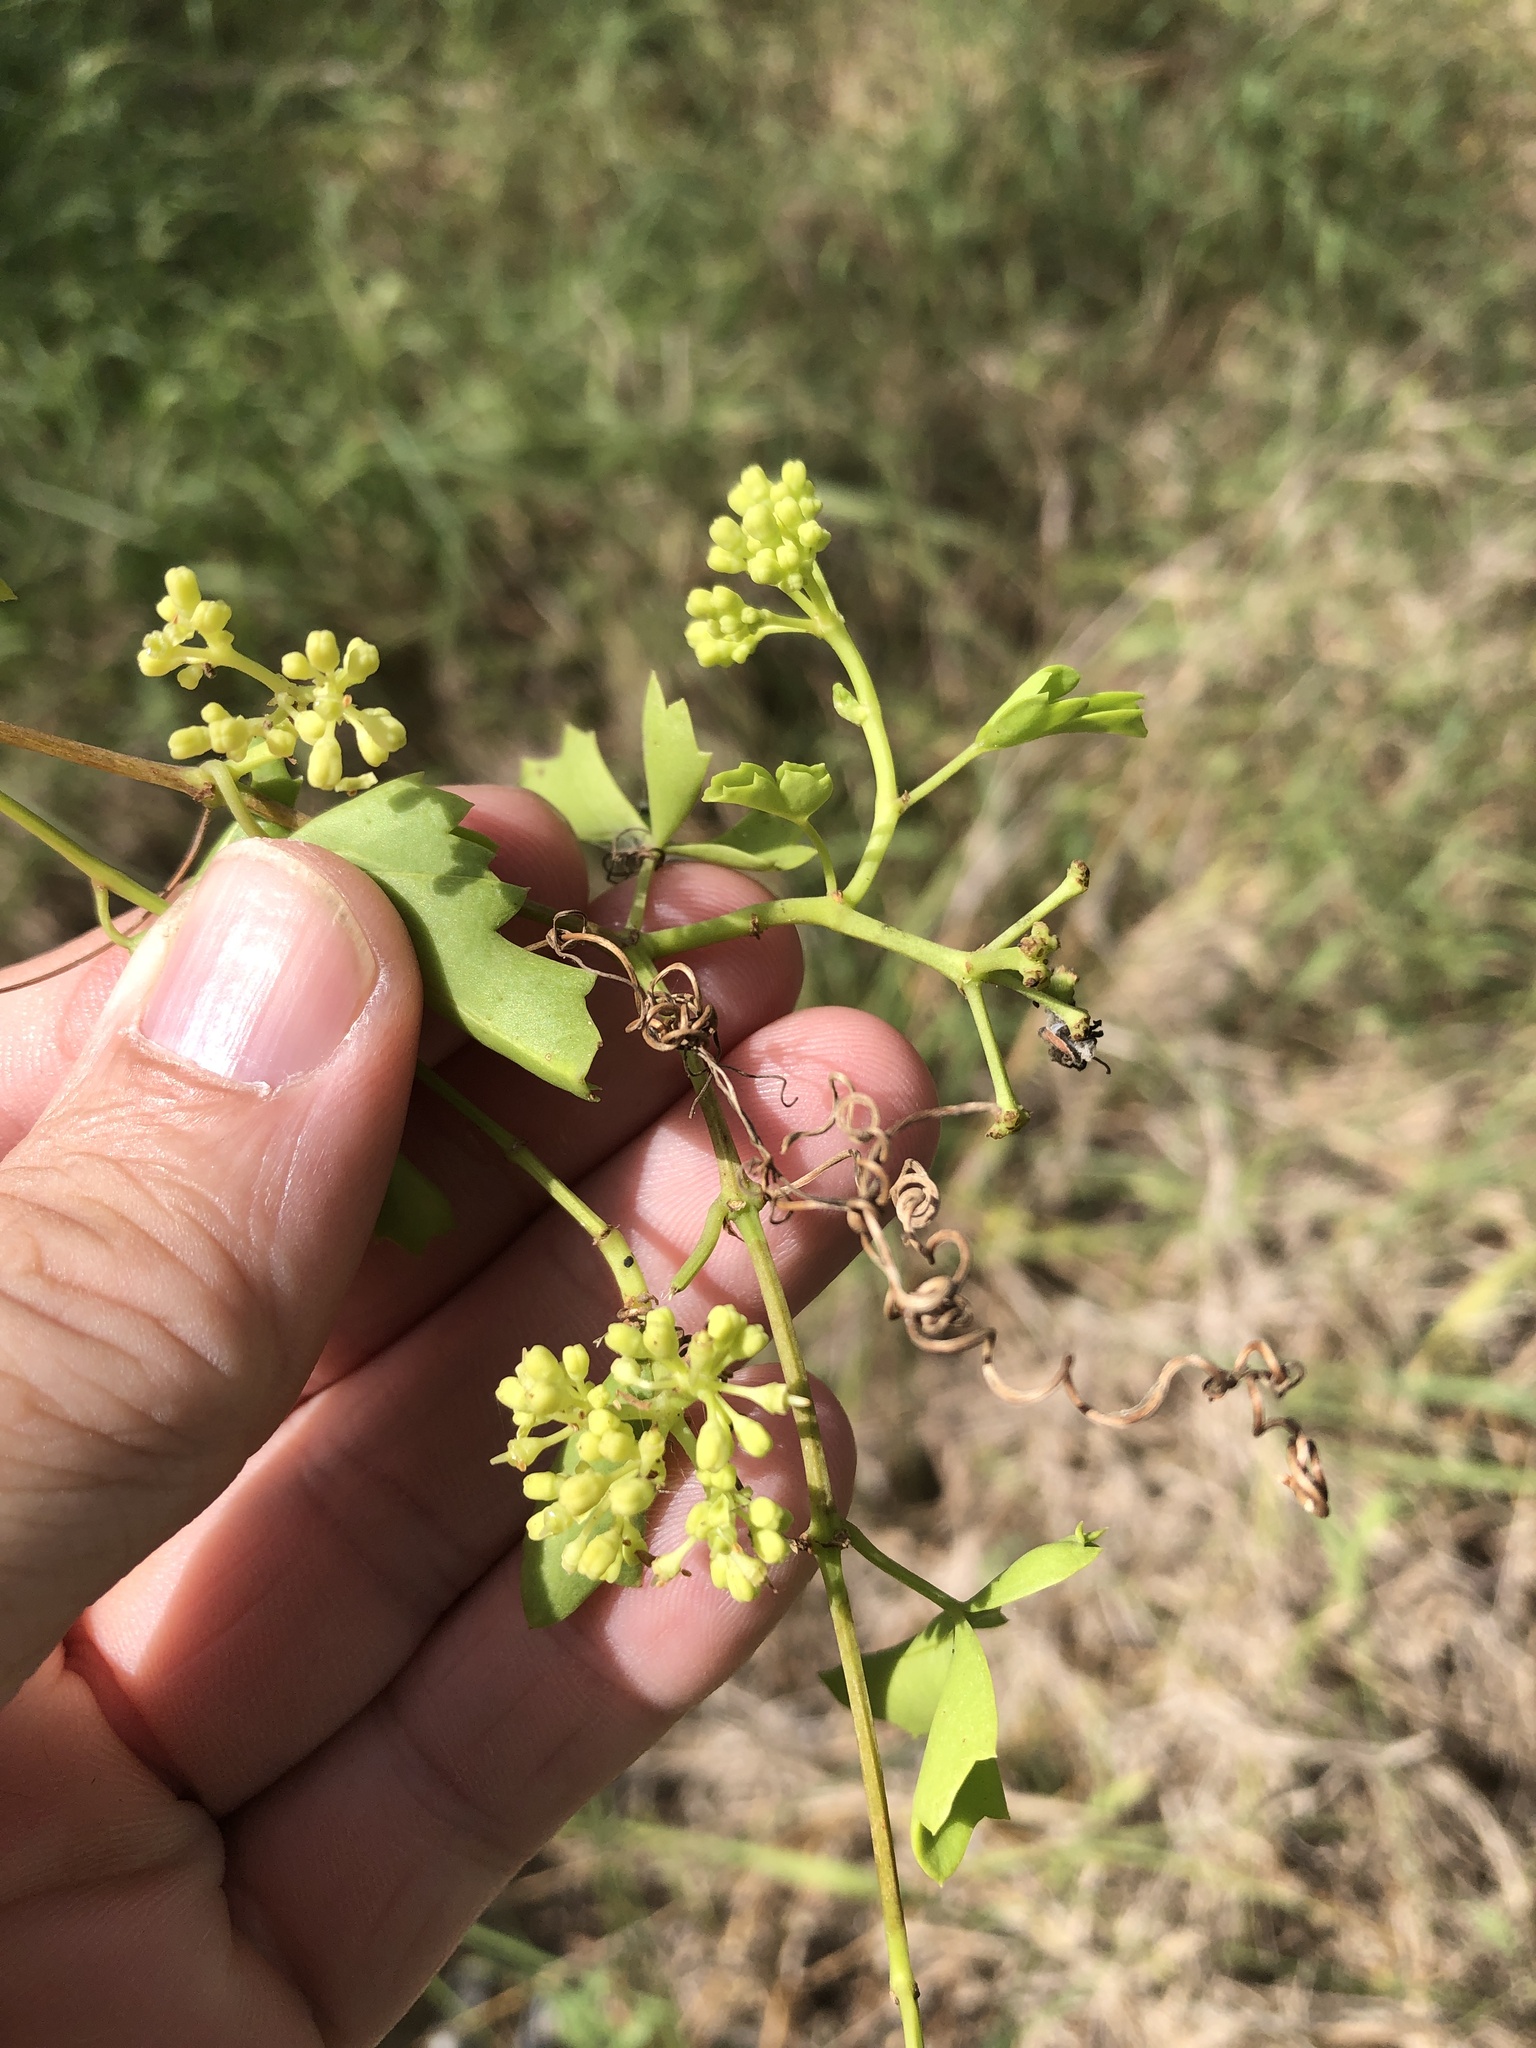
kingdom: Plantae
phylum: Tracheophyta
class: Magnoliopsida
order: Vitales
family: Vitaceae
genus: Cissus
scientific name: Cissus trifoliata
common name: Vine-sorrel
